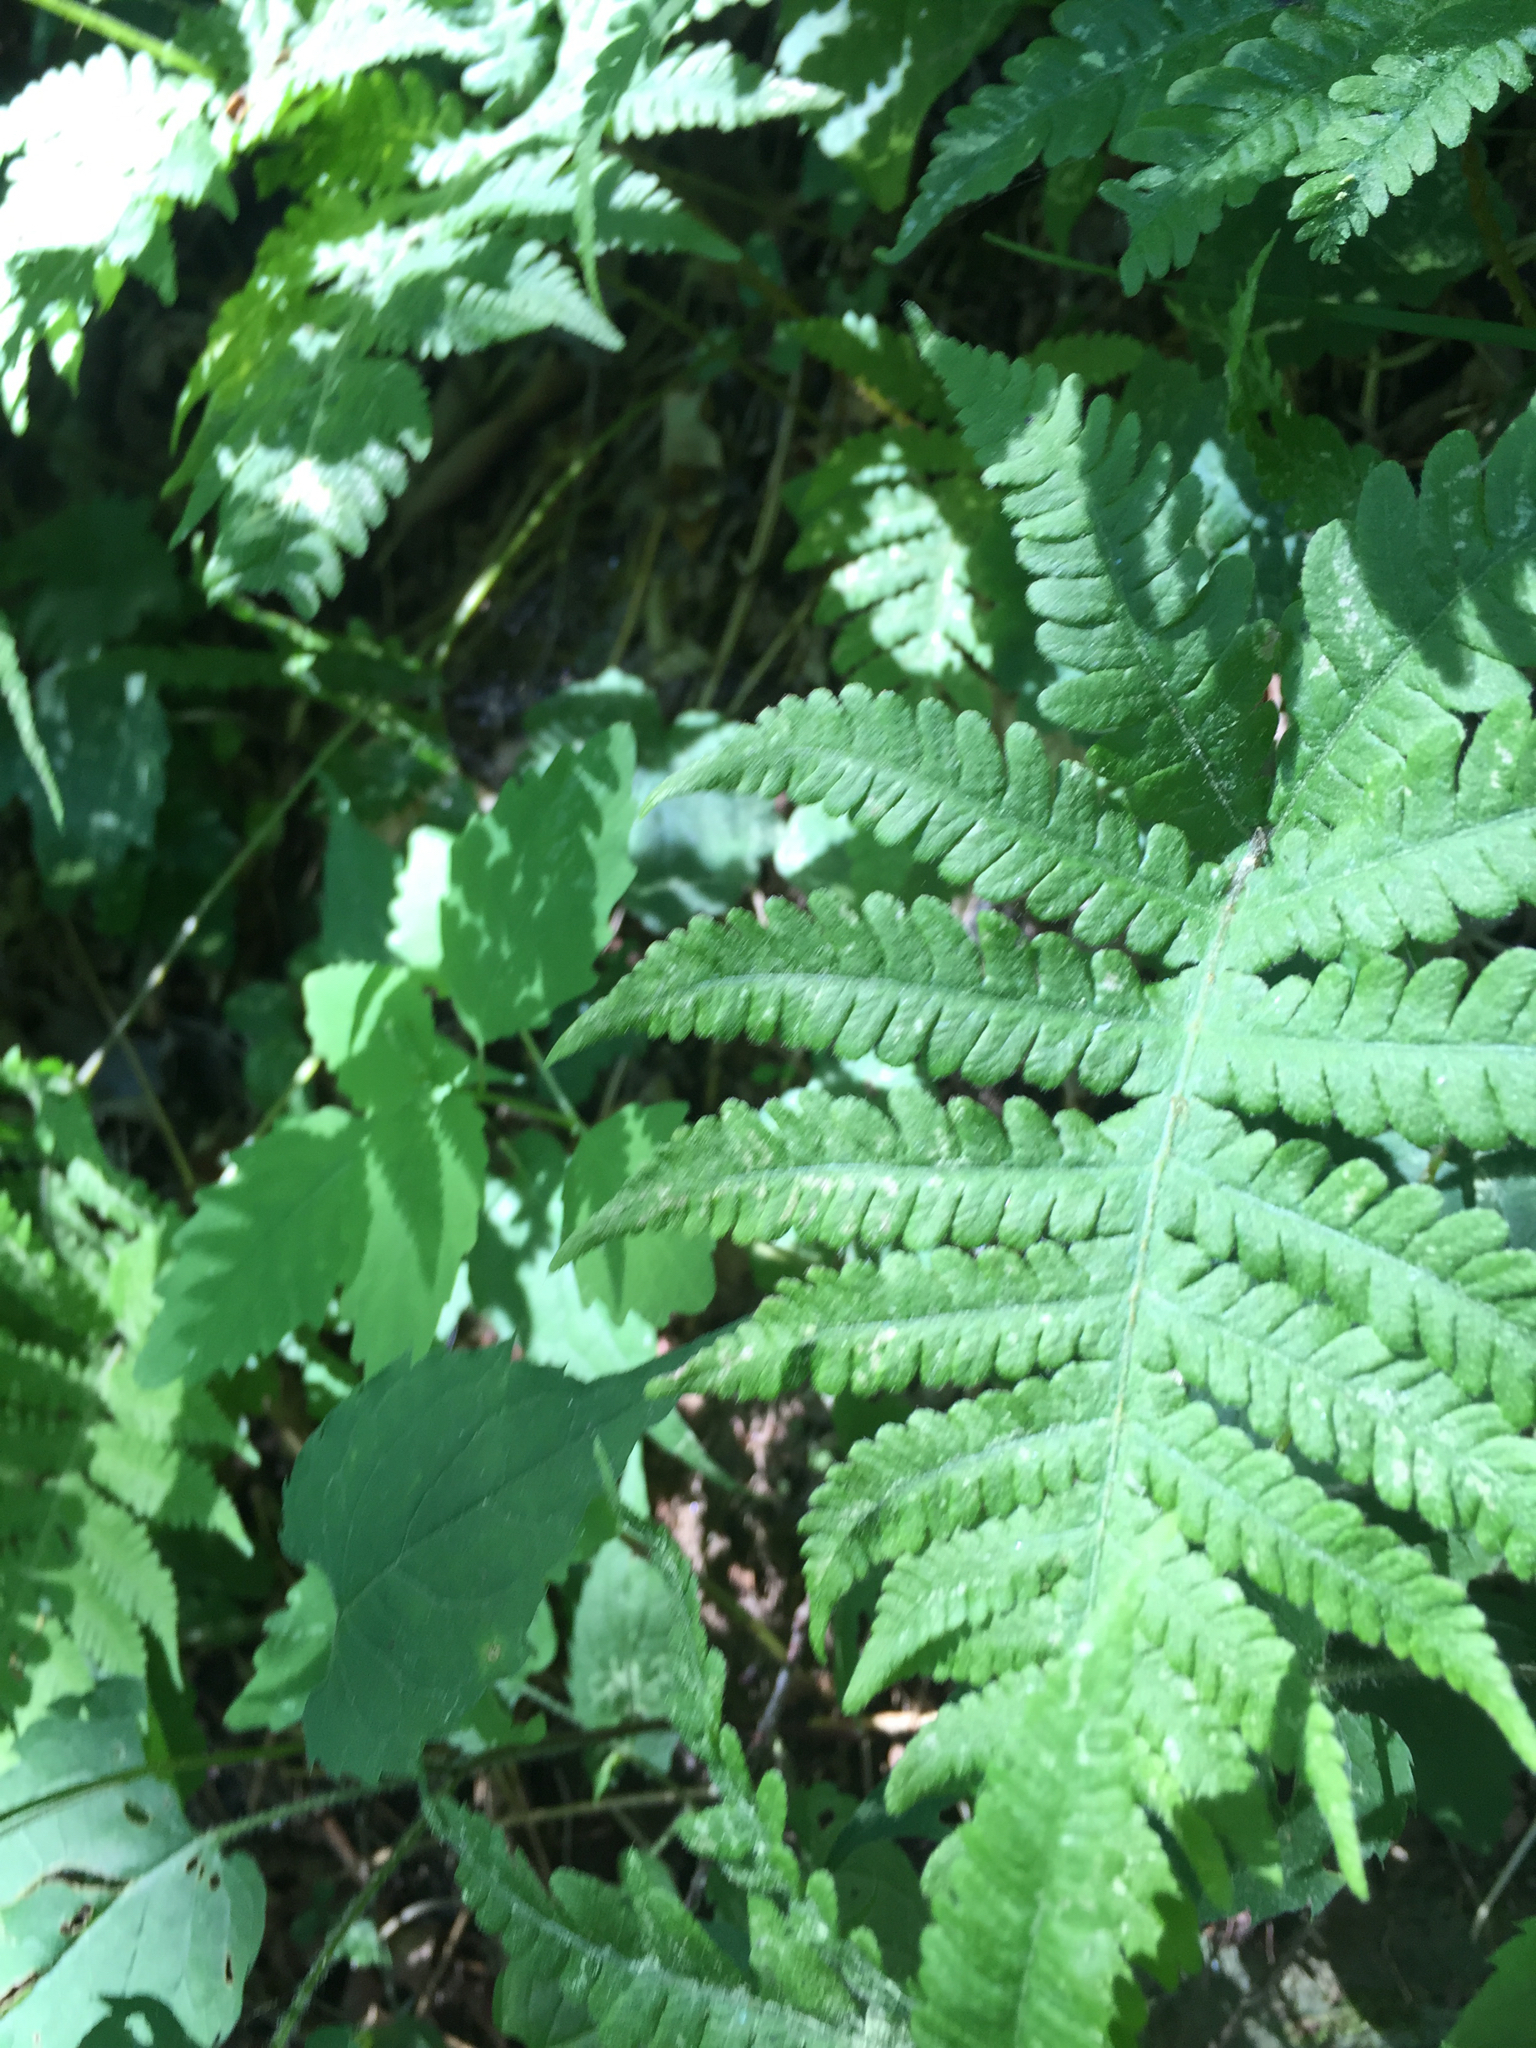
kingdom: Plantae
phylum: Tracheophyta
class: Polypodiopsida
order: Polypodiales
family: Thelypteridaceae
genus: Phegopteris
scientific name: Phegopteris connectilis
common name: Beech fern
